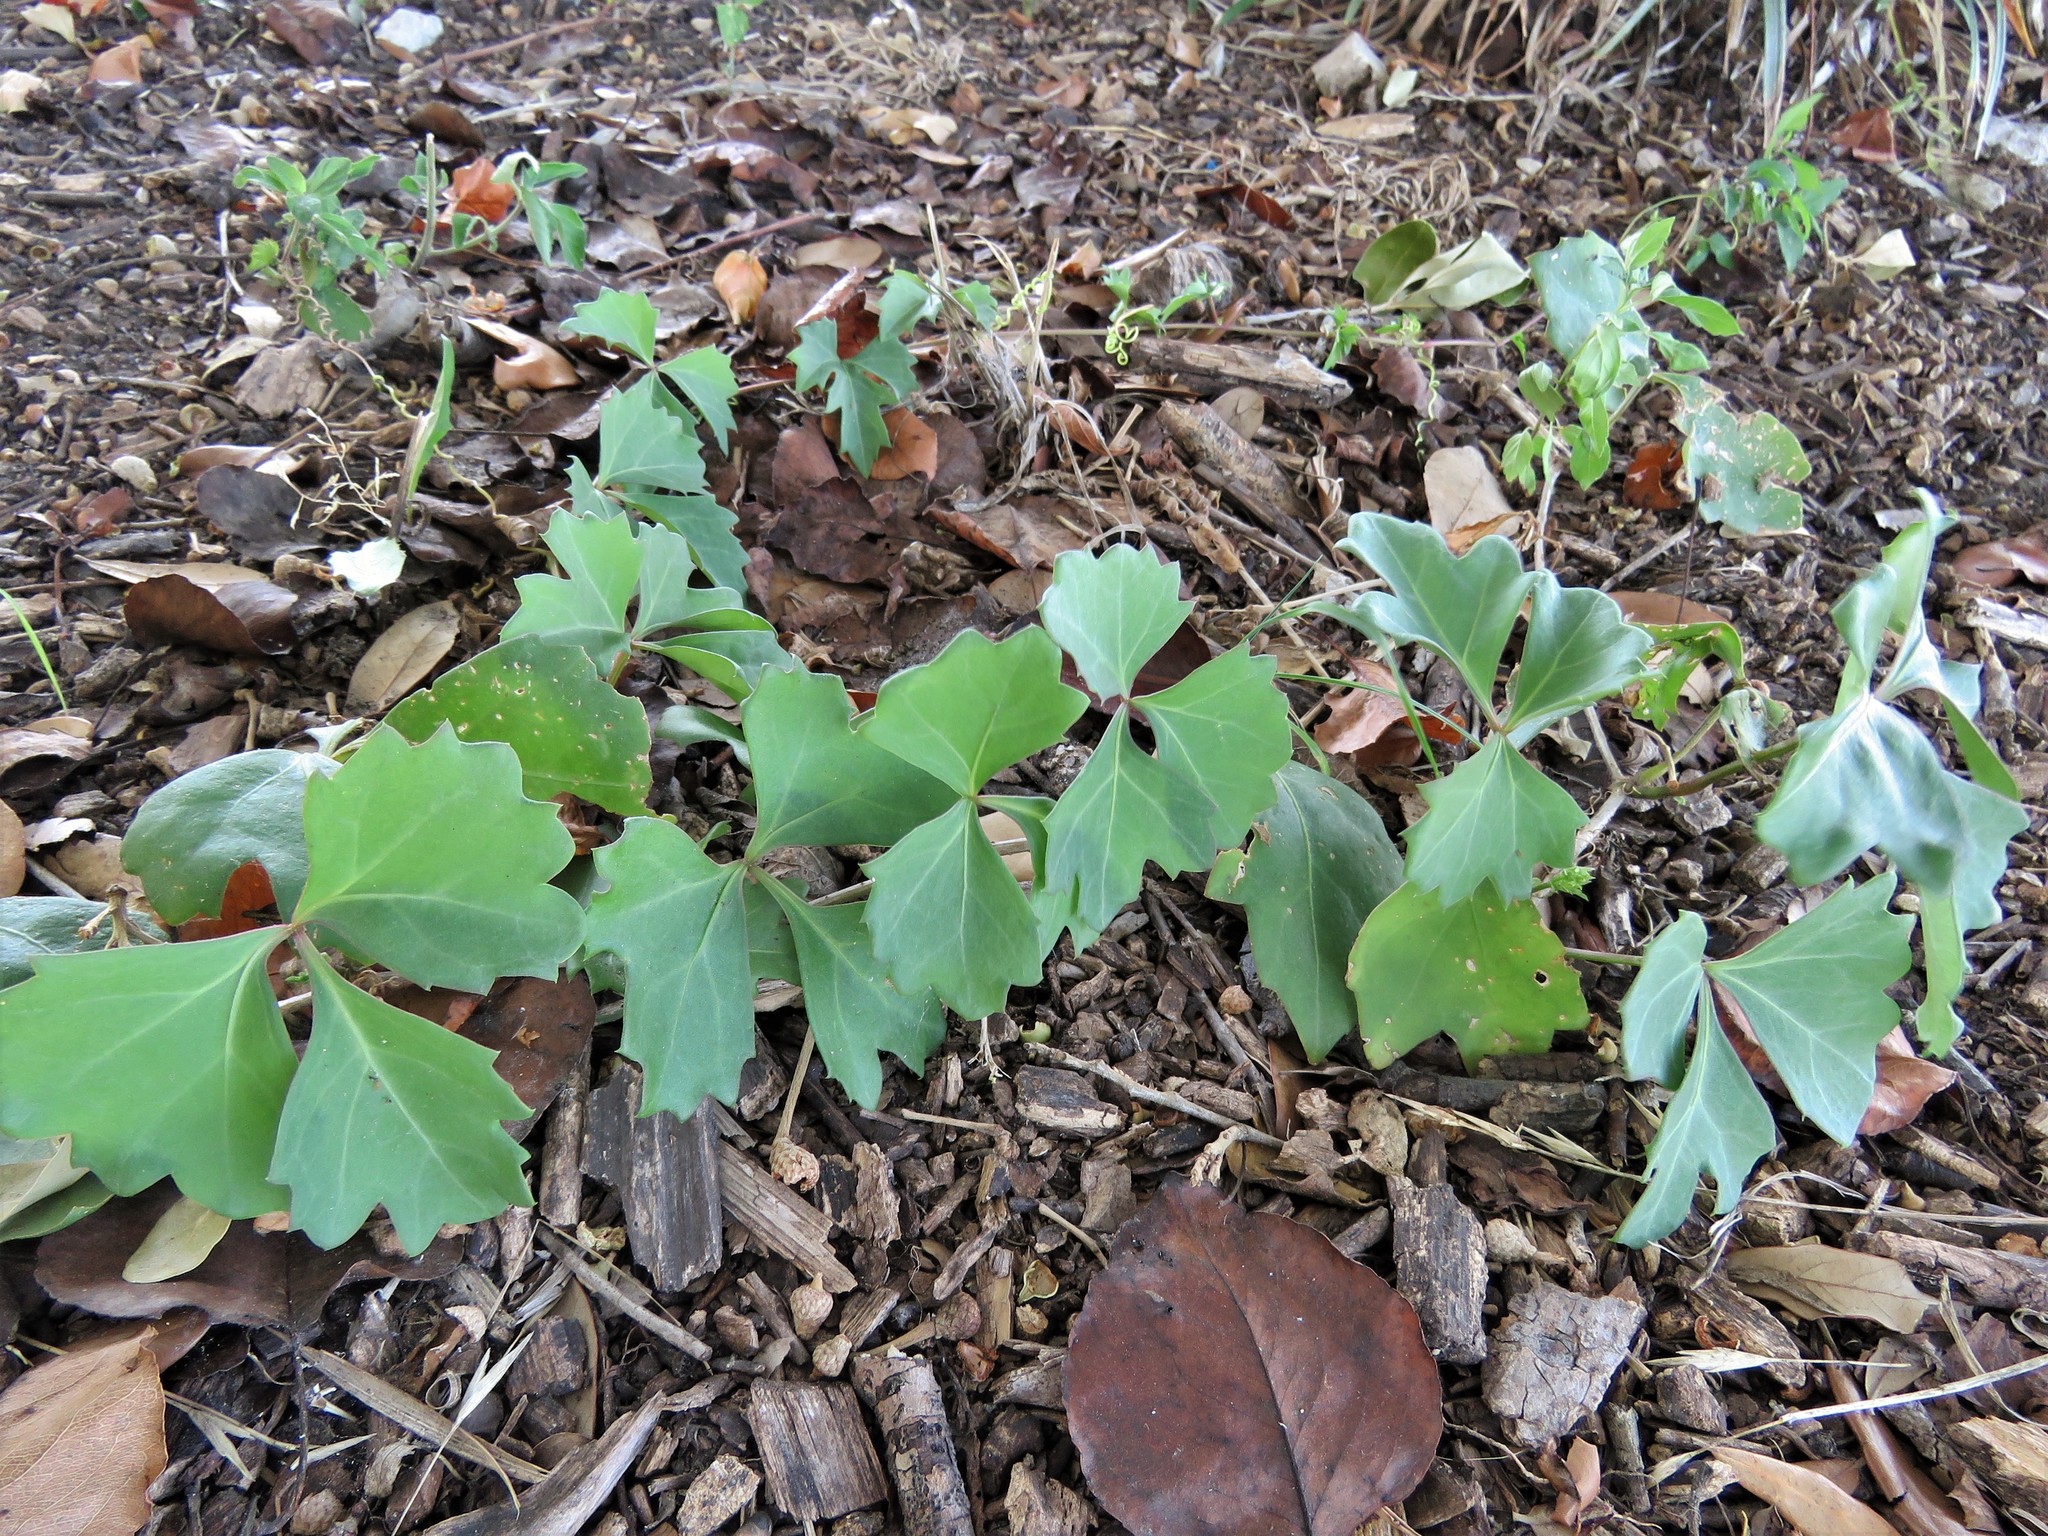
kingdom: Plantae
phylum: Tracheophyta
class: Magnoliopsida
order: Vitales
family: Vitaceae
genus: Cissus
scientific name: Cissus trifoliata
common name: Vine-sorrel
